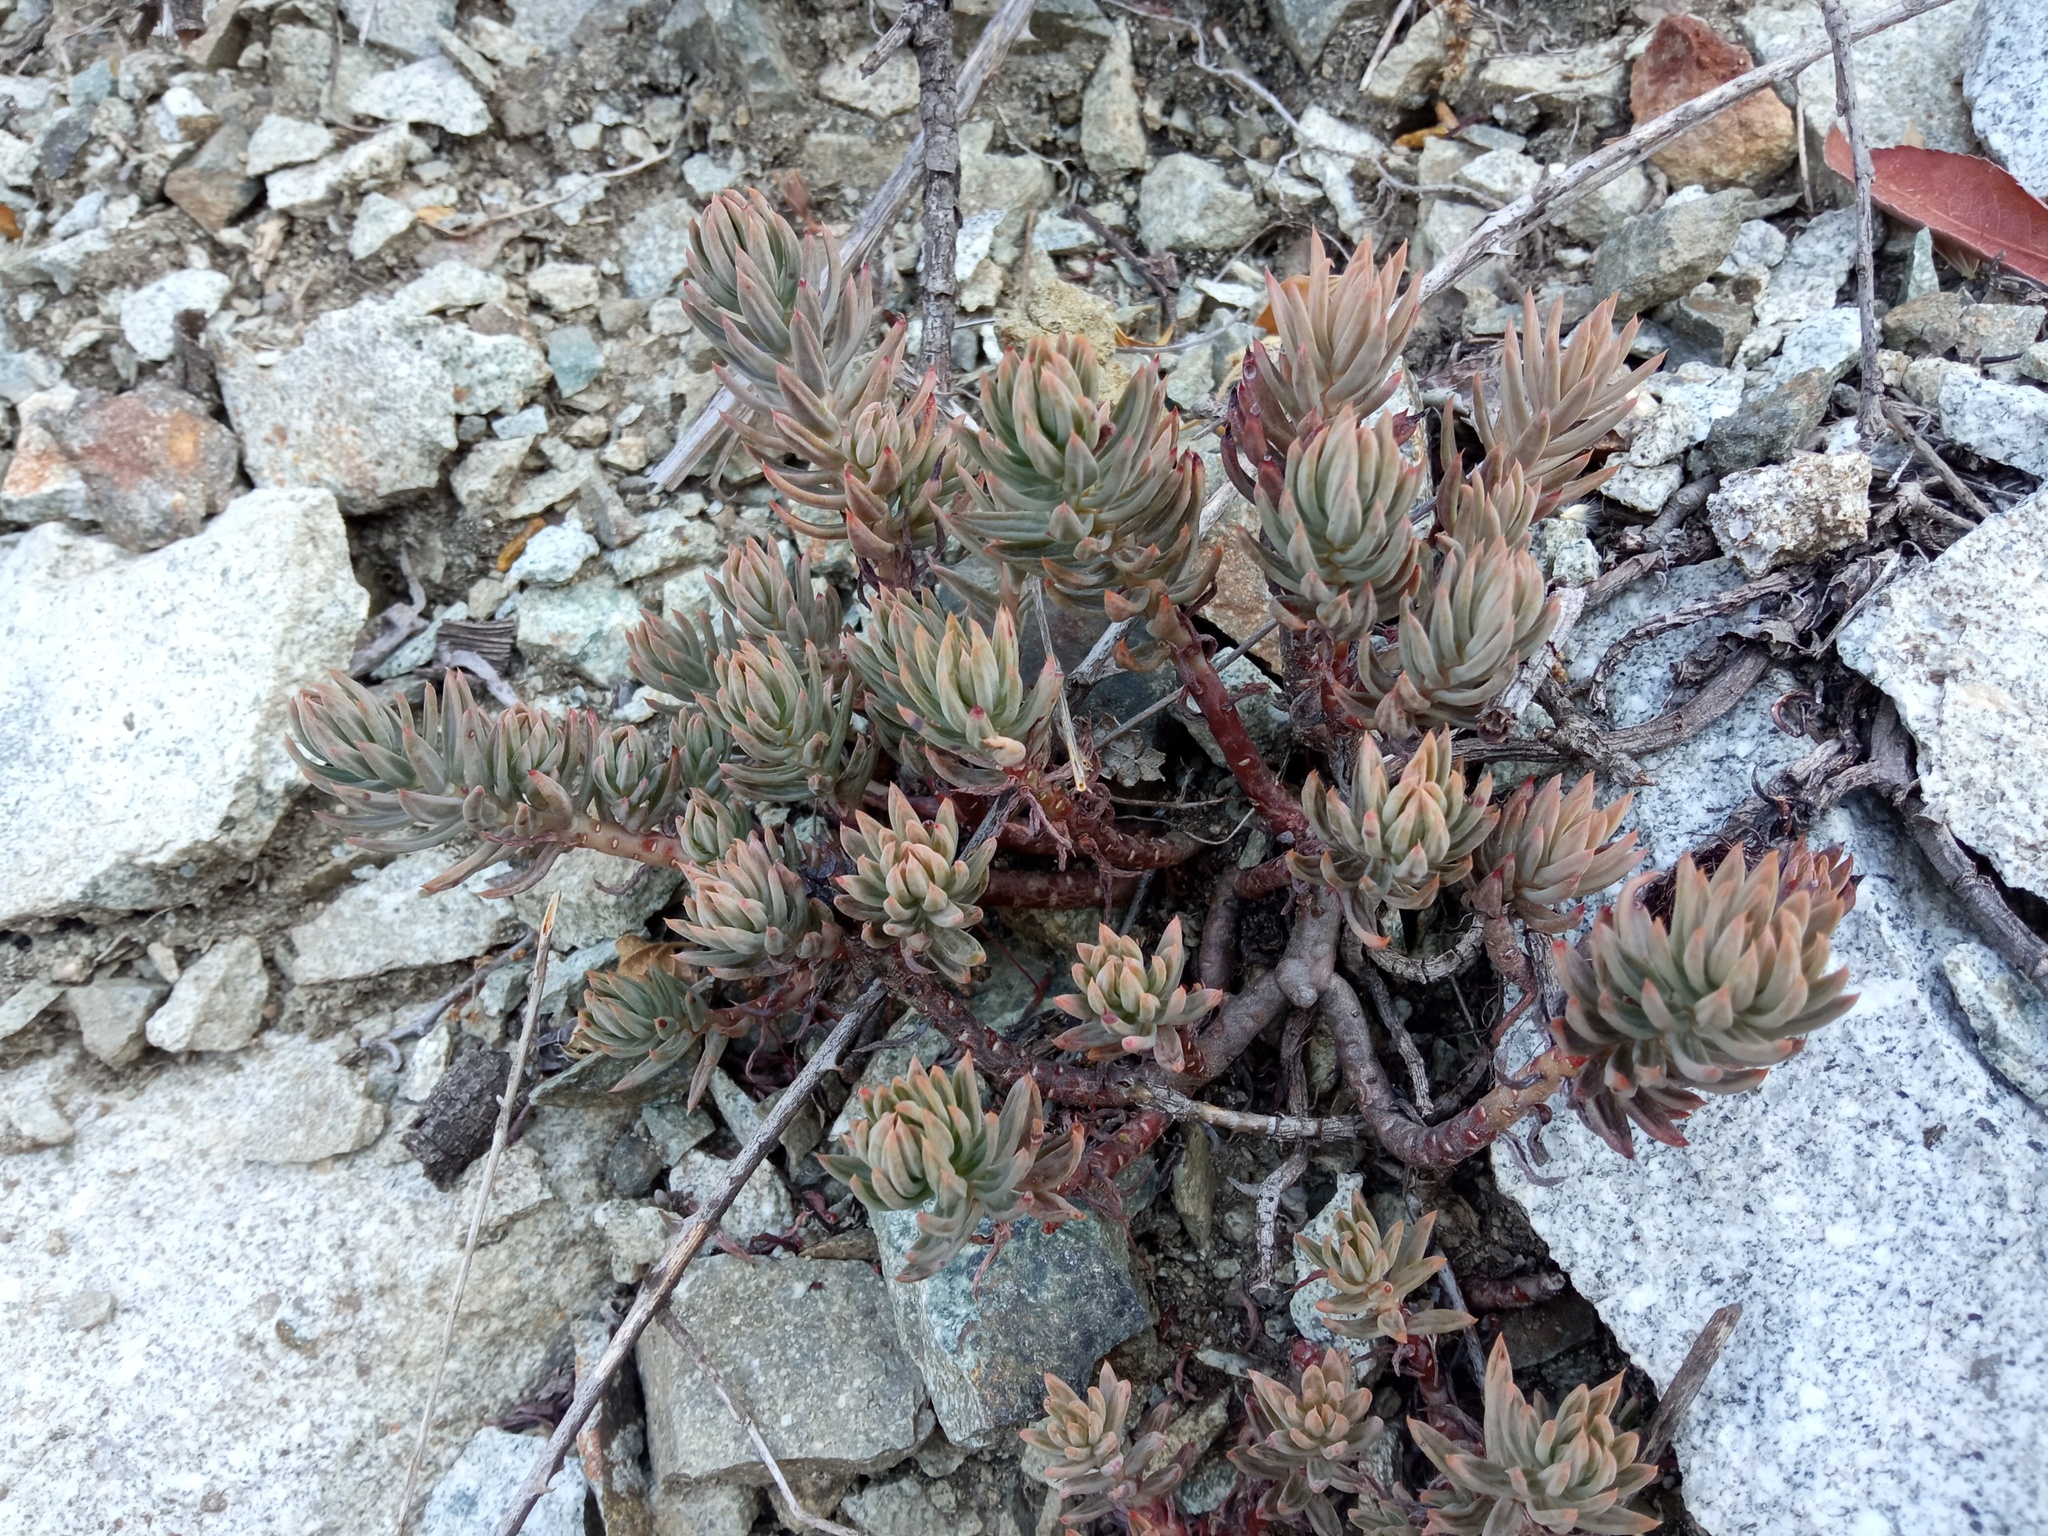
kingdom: Plantae
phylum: Tracheophyta
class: Magnoliopsida
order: Saxifragales
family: Crassulaceae
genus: Petrosedum
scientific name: Petrosedum sediforme
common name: Pale stonecrop
